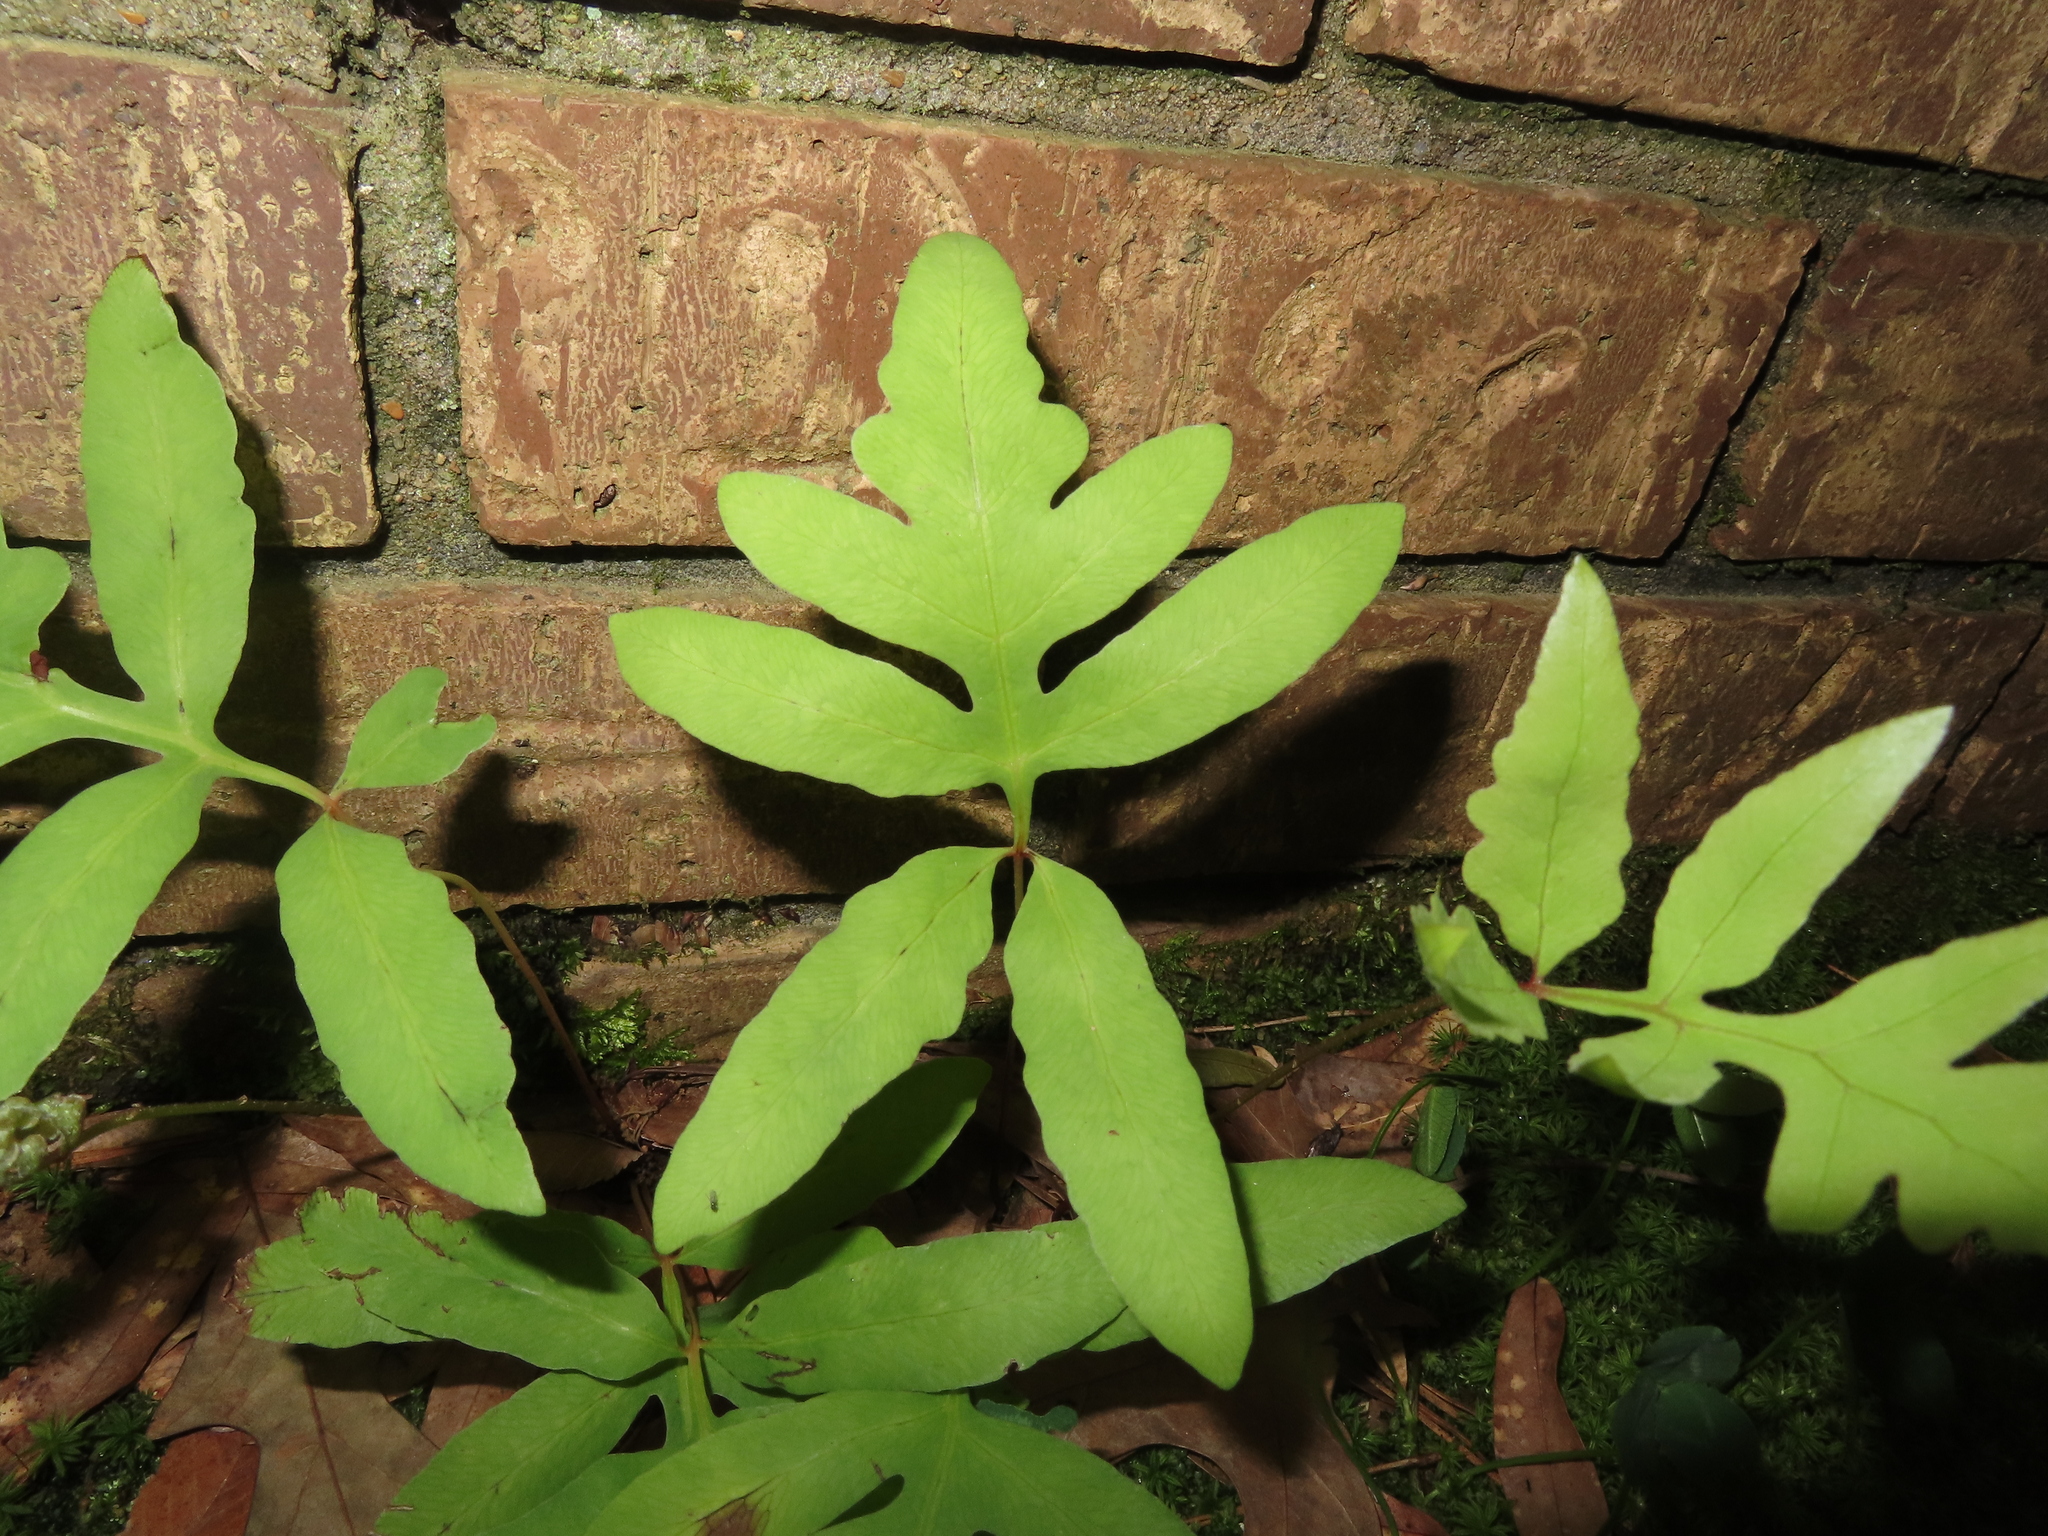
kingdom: Plantae
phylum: Tracheophyta
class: Polypodiopsida
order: Polypodiales
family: Onocleaceae
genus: Onoclea
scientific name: Onoclea sensibilis
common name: Sensitive fern
